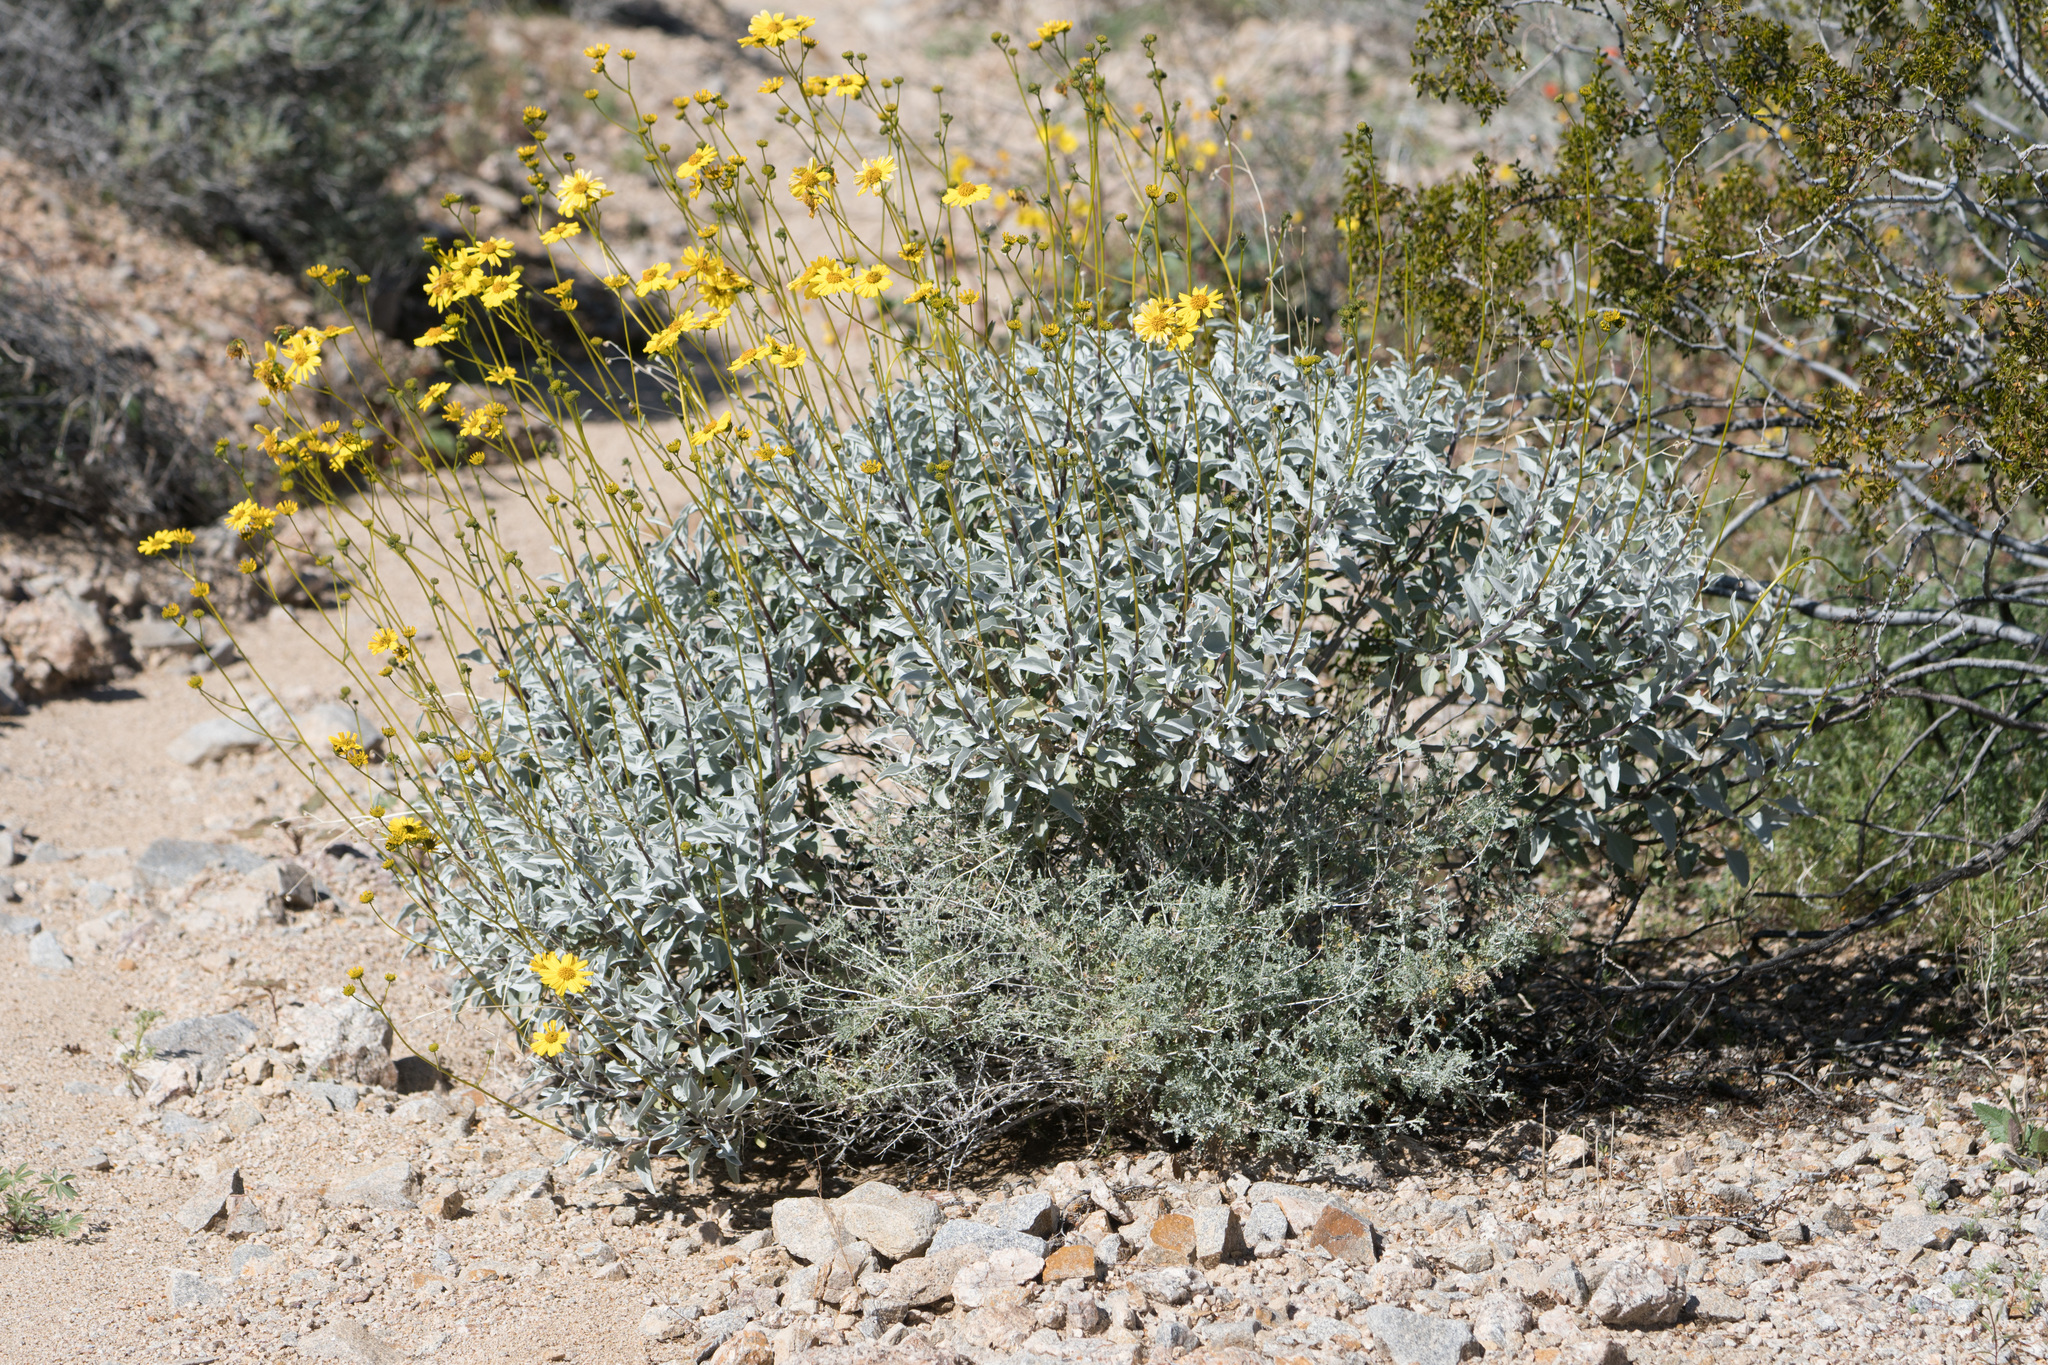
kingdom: Plantae
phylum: Tracheophyta
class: Magnoliopsida
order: Asterales
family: Asteraceae
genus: Encelia
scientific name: Encelia farinosa
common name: Brittlebush
